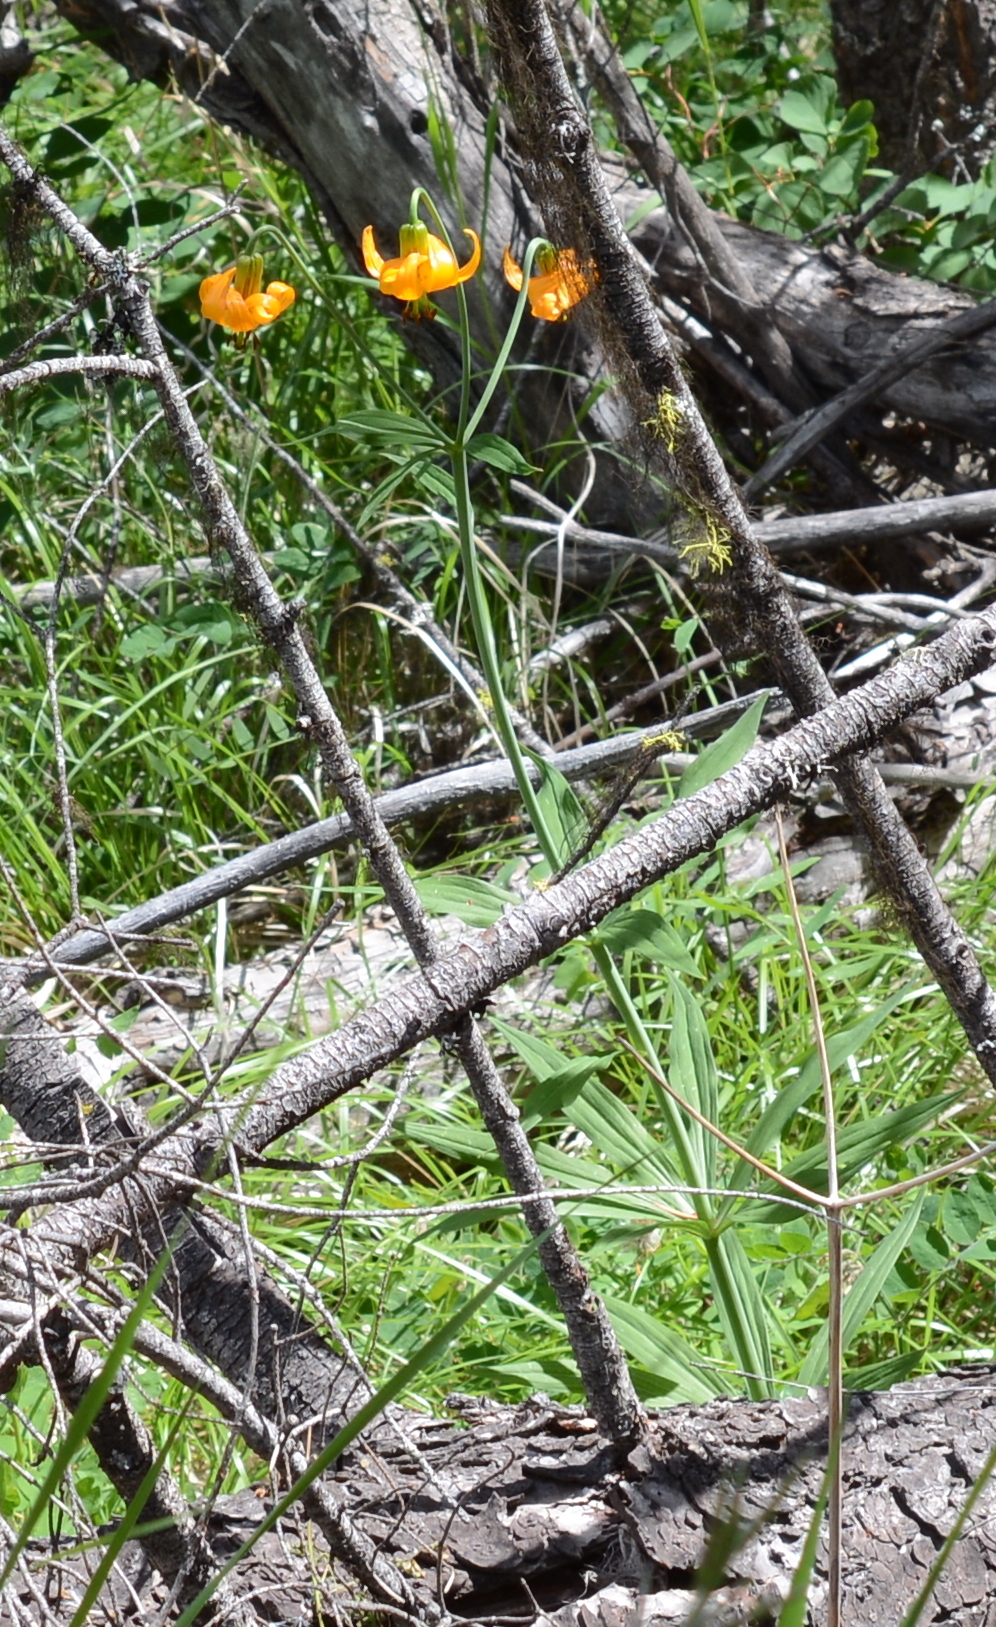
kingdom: Plantae
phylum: Tracheophyta
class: Liliopsida
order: Liliales
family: Liliaceae
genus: Lilium
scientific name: Lilium columbianum
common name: Columbia lily
